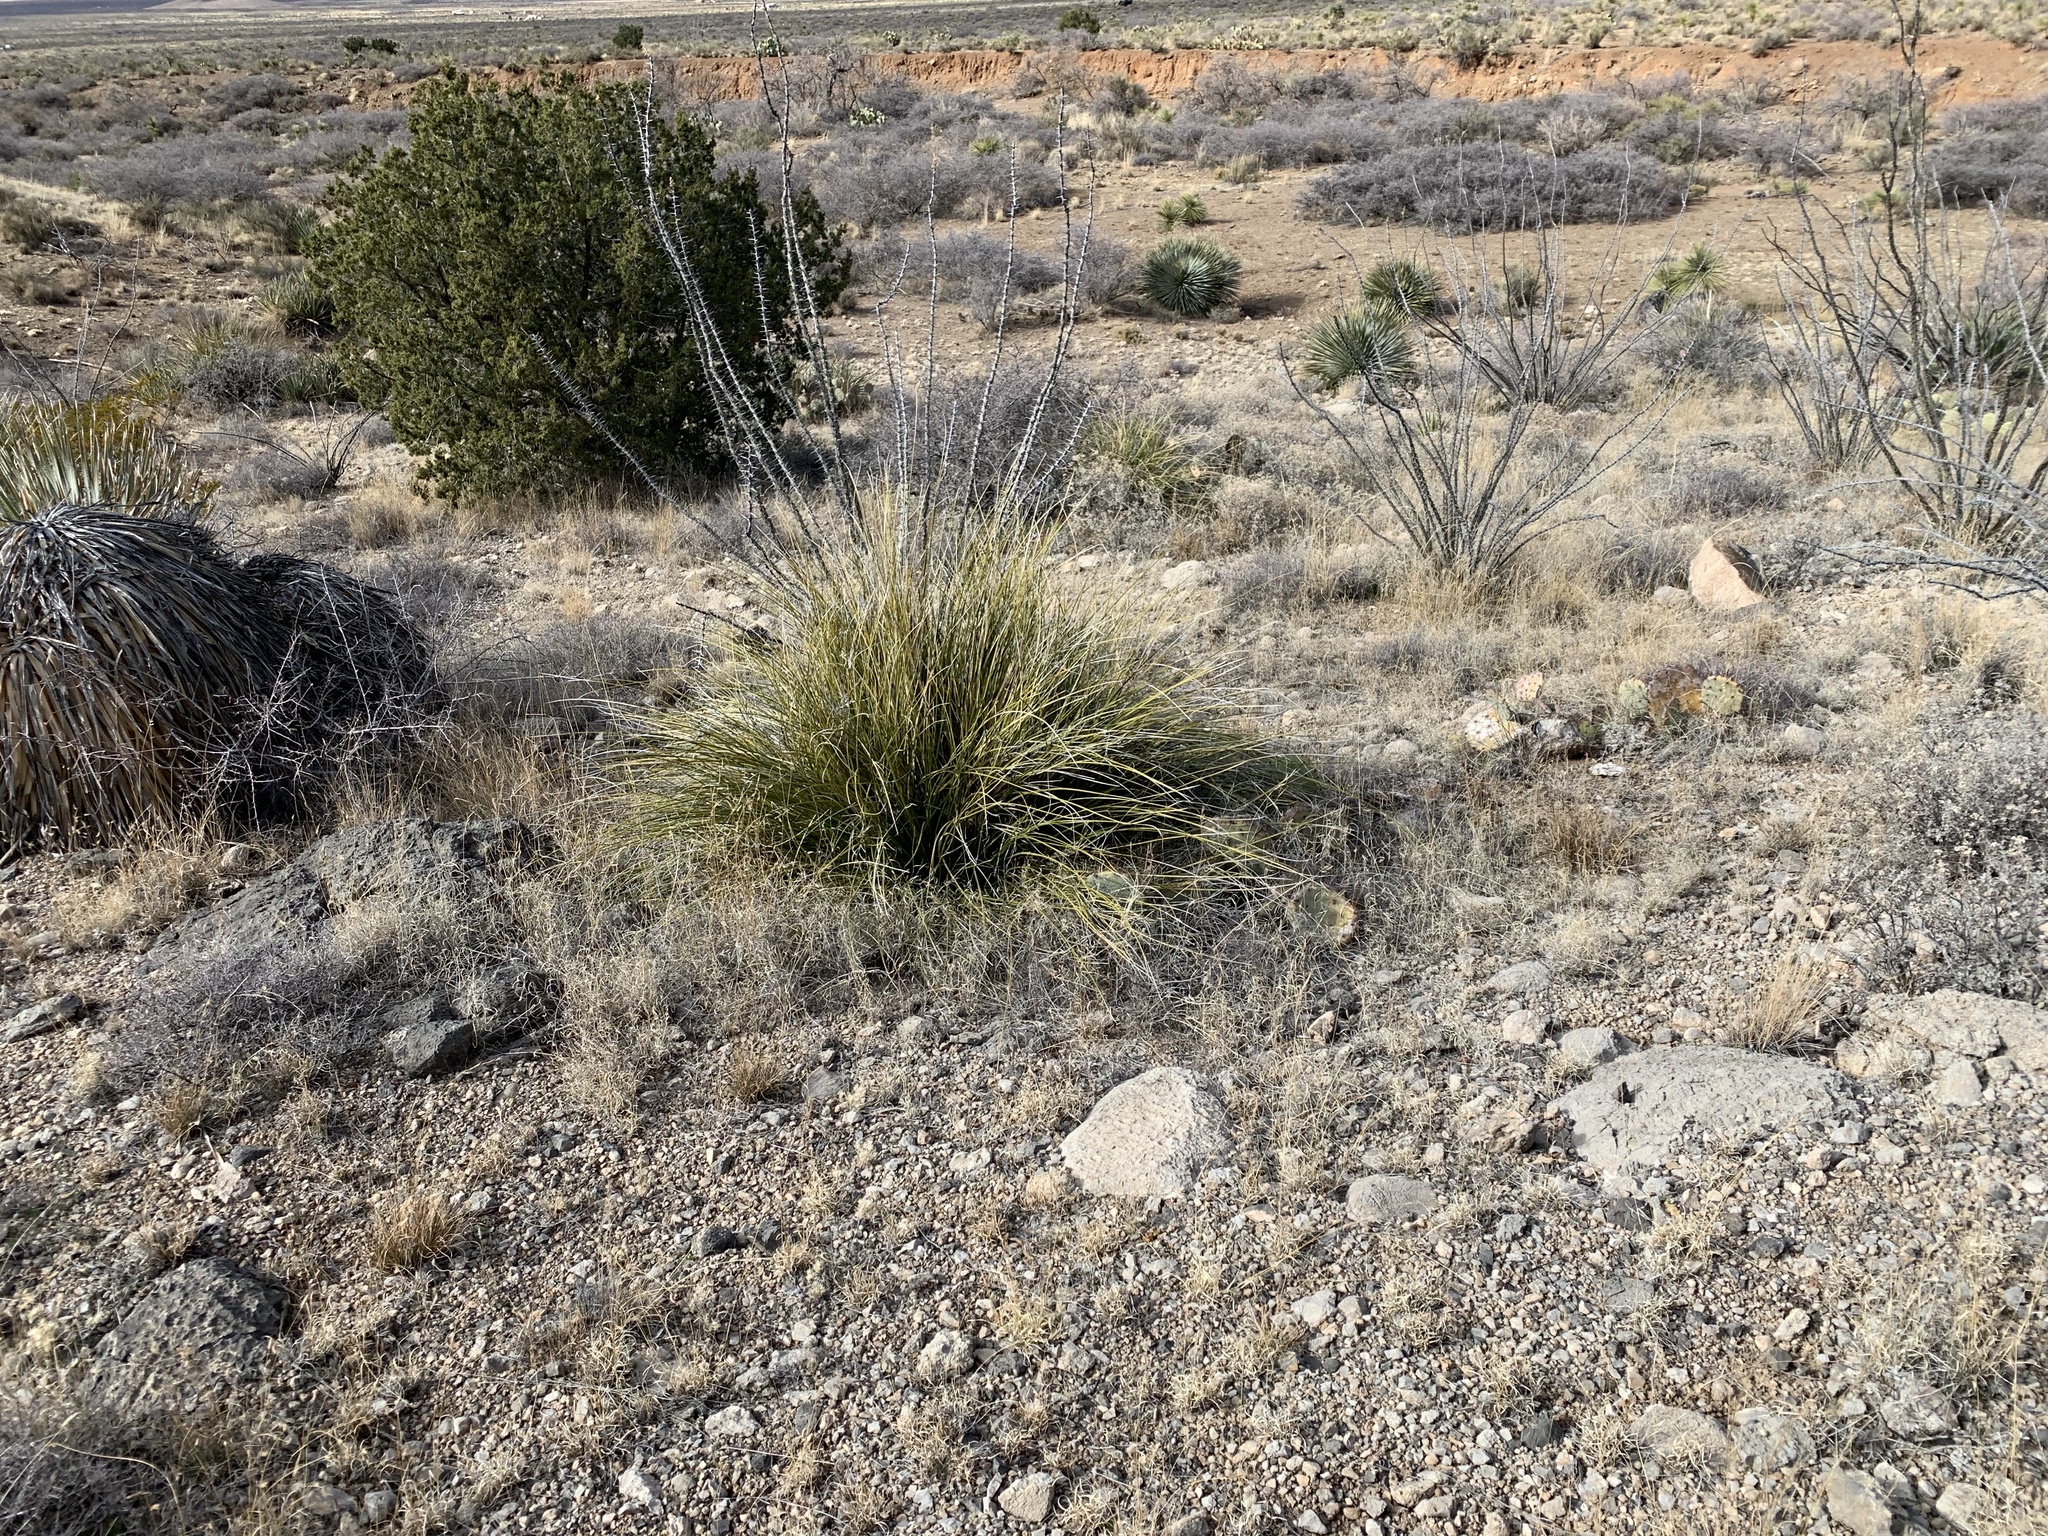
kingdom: Plantae
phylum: Tracheophyta
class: Liliopsida
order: Asparagales
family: Asparagaceae
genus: Nolina
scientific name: Nolina texana
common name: Texas sacahuiste
